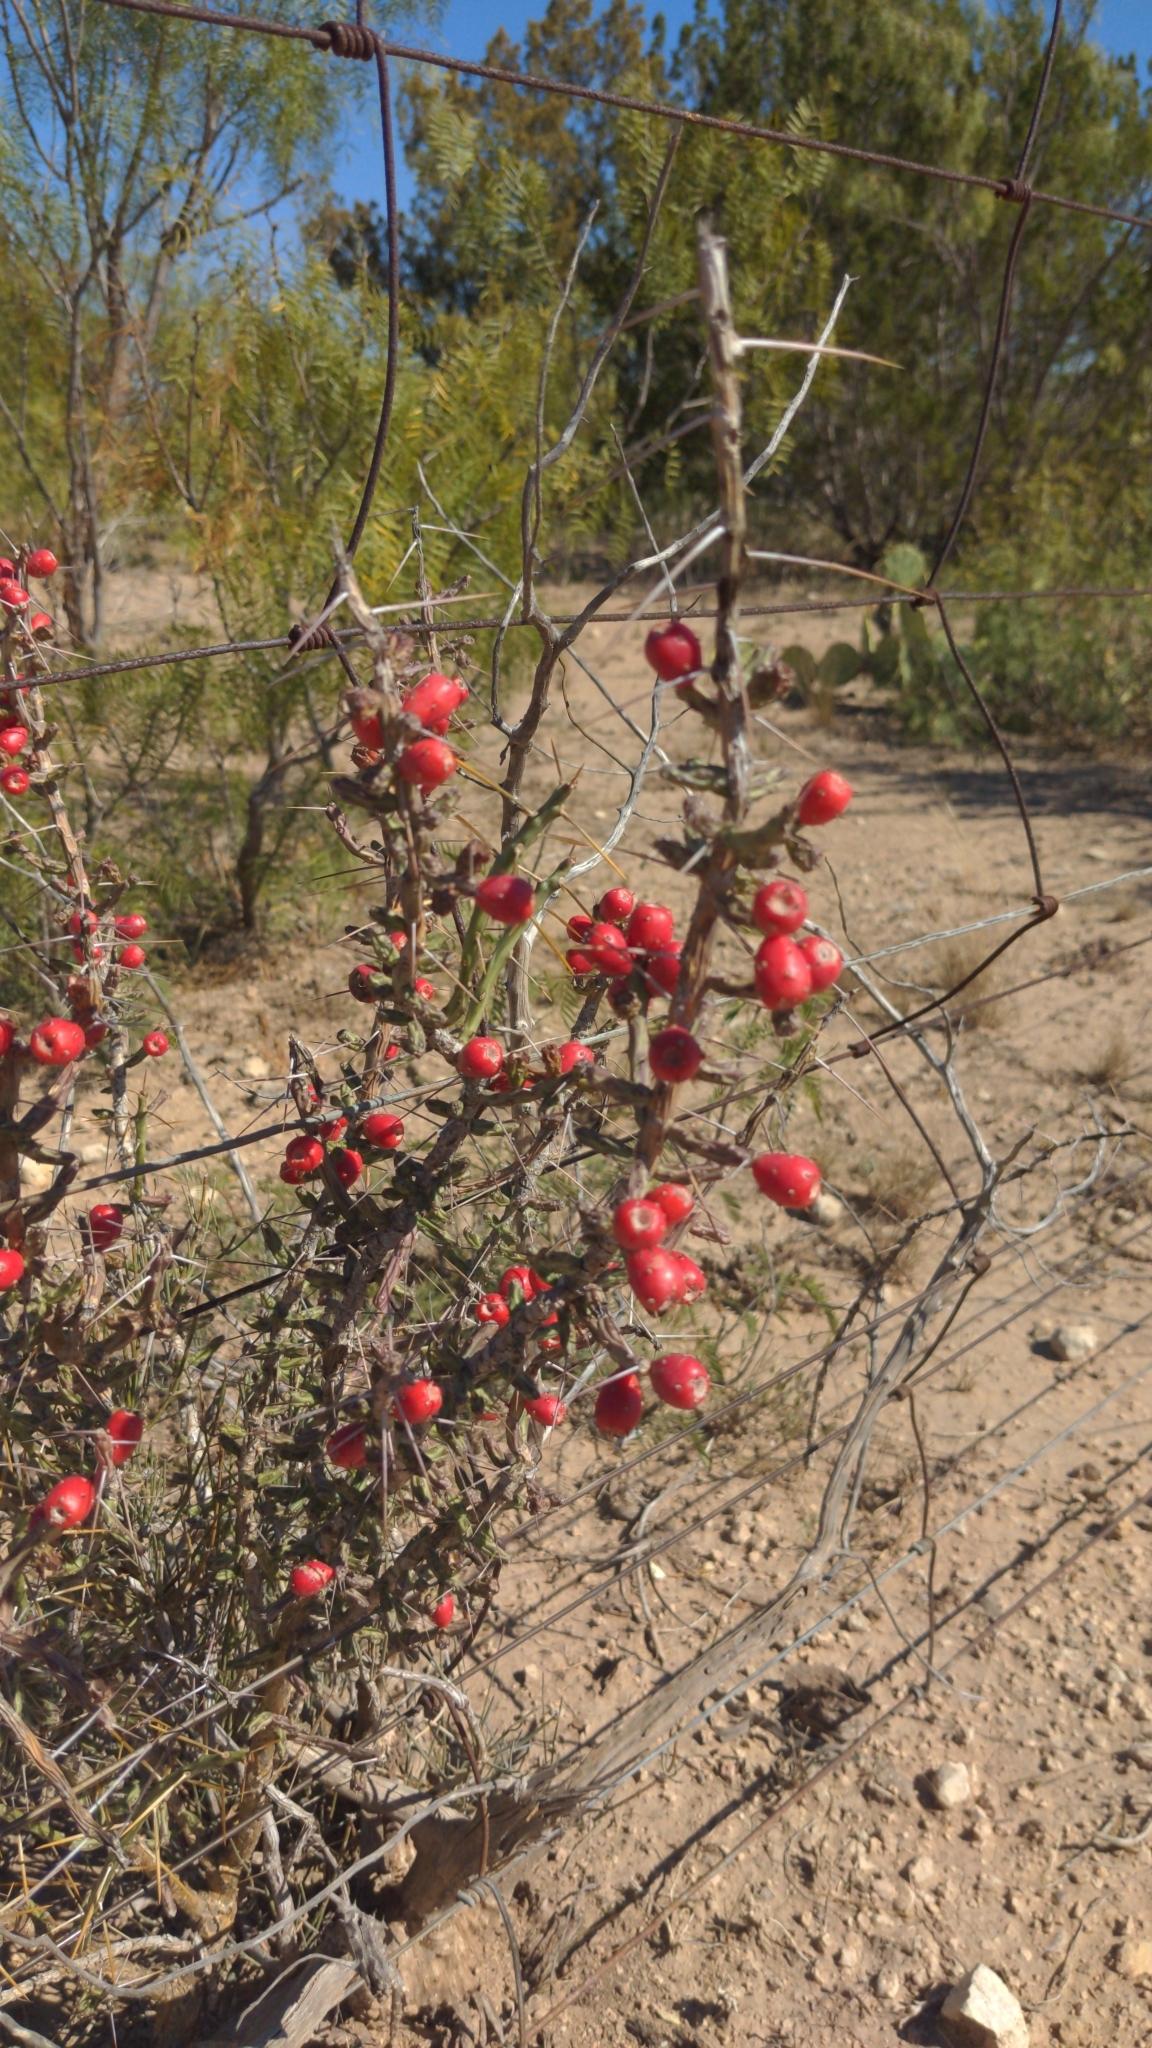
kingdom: Plantae
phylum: Tracheophyta
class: Magnoliopsida
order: Caryophyllales
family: Cactaceae
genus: Cylindropuntia
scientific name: Cylindropuntia leptocaulis
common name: Christmas cactus
